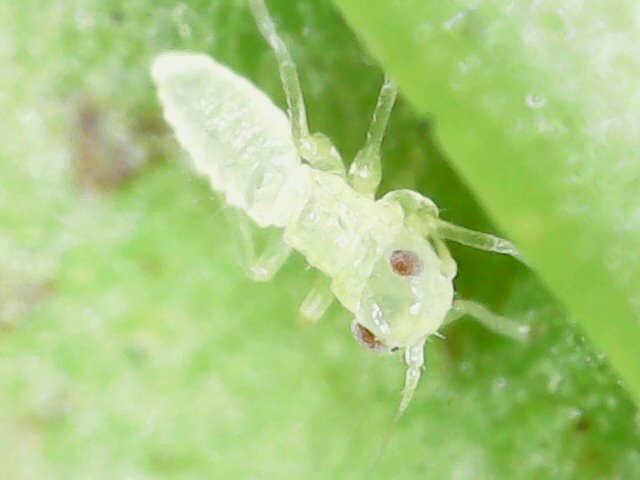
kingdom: Animalia
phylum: Arthropoda
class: Insecta
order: Hemiptera
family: Cicadellidae
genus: Amrasca
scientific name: Amrasca biguttula
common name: Indian cotton jassid
